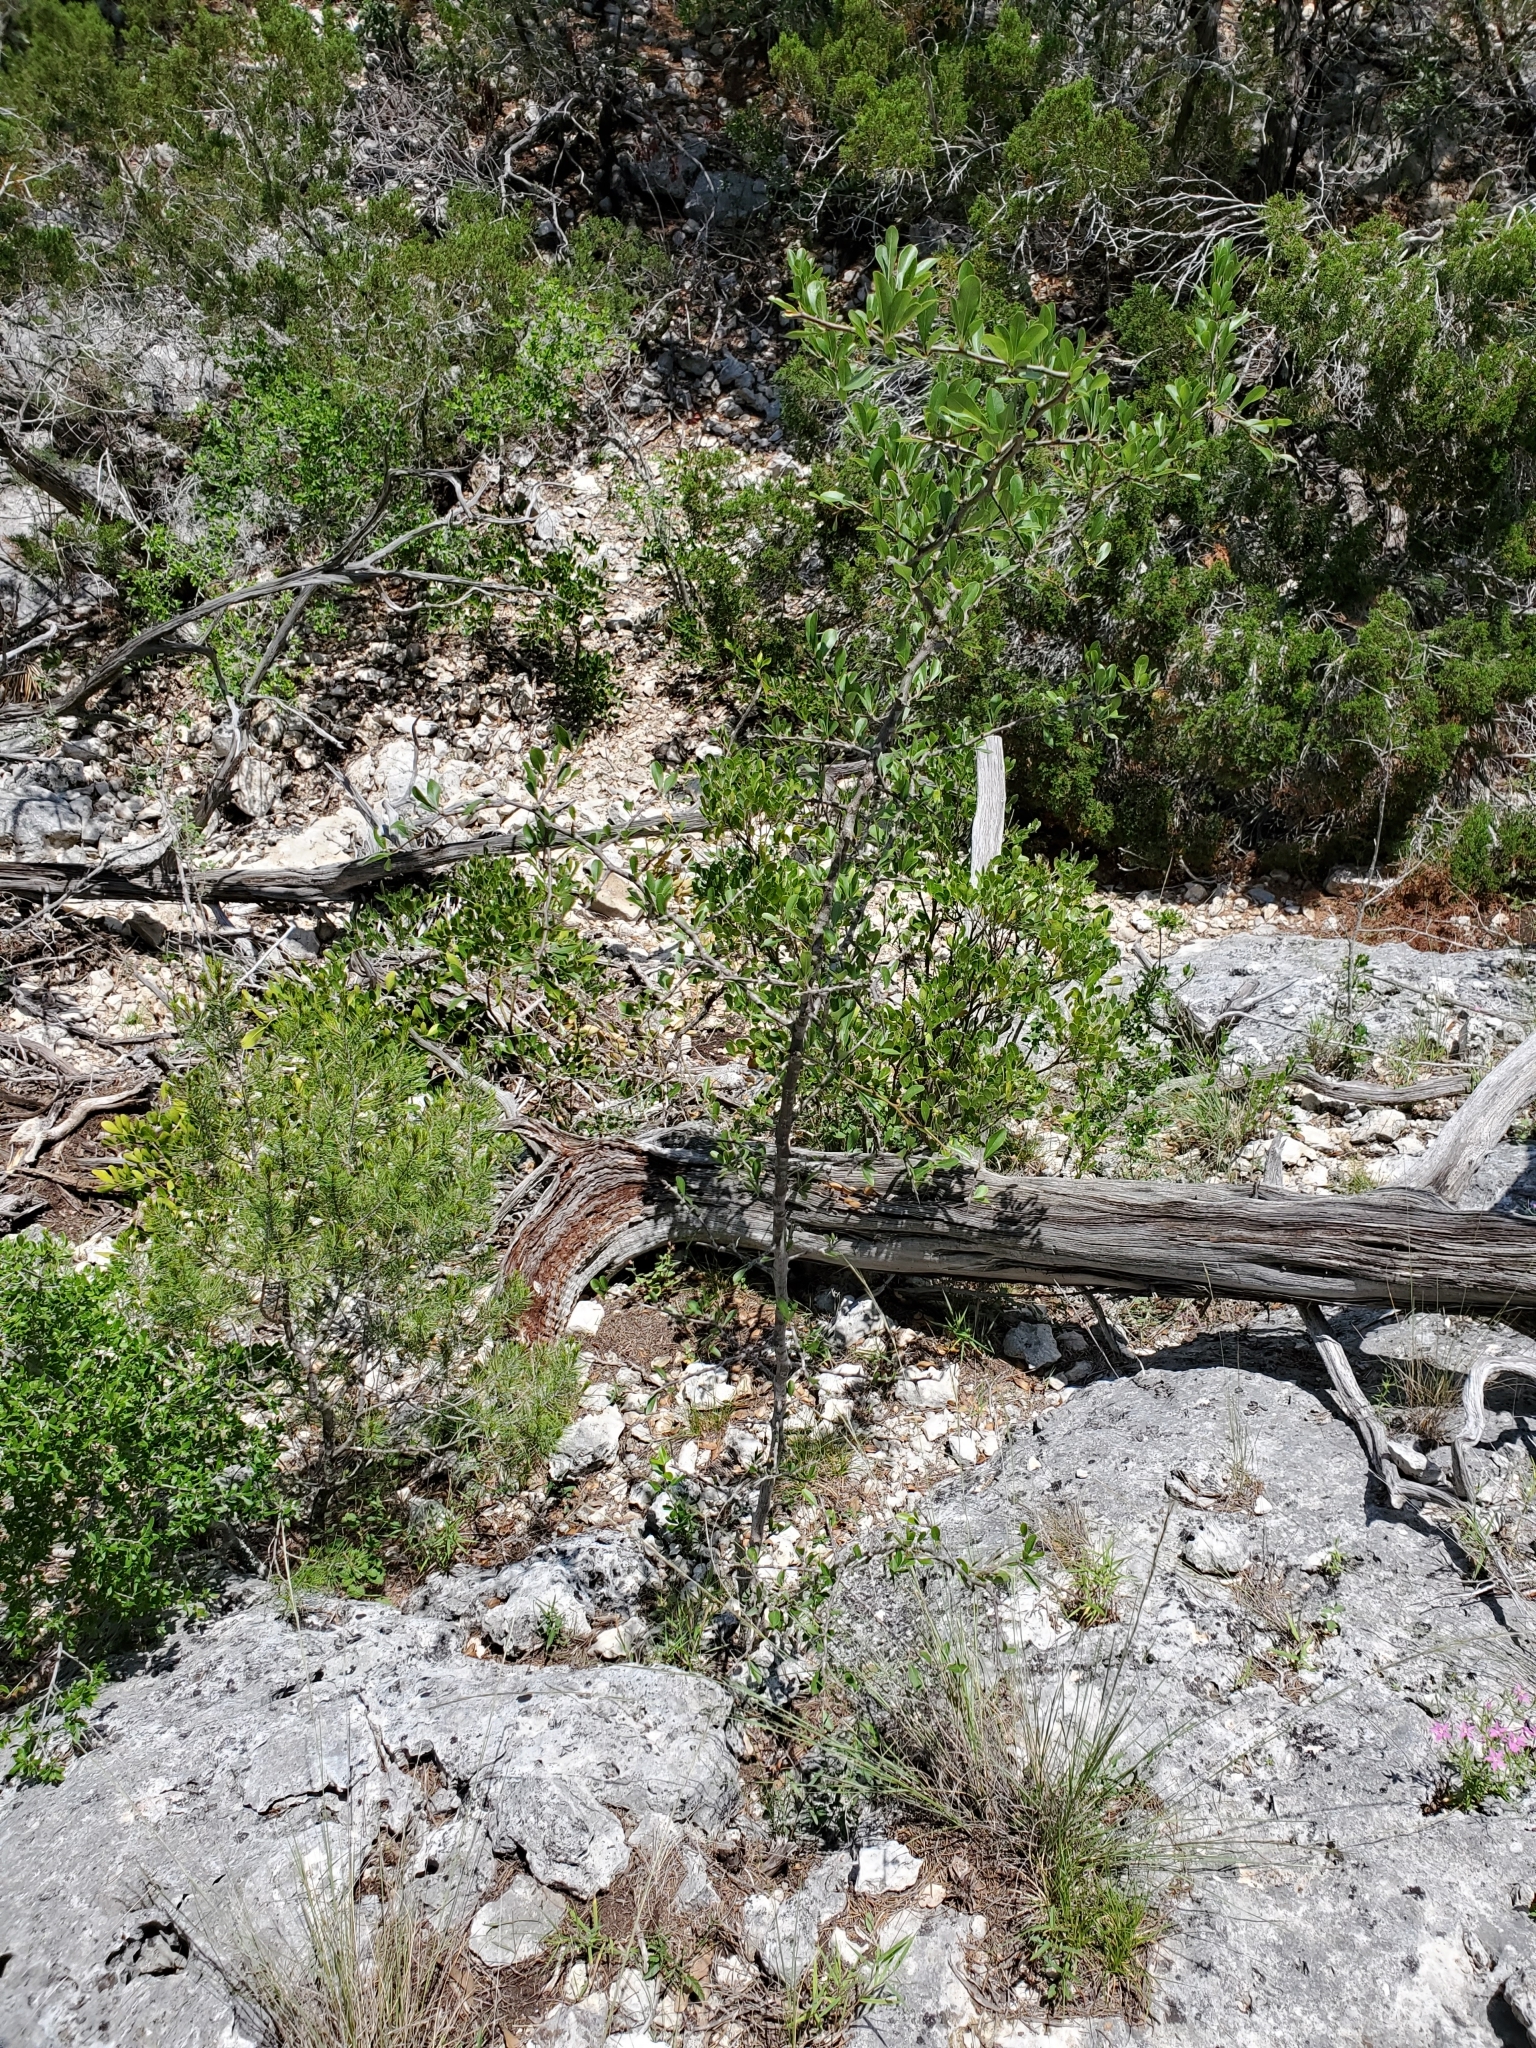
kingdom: Plantae
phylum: Tracheophyta
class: Magnoliopsida
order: Ericales
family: Sapotaceae
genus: Sideroxylon
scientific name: Sideroxylon lanuginosum
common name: Chittamwood
